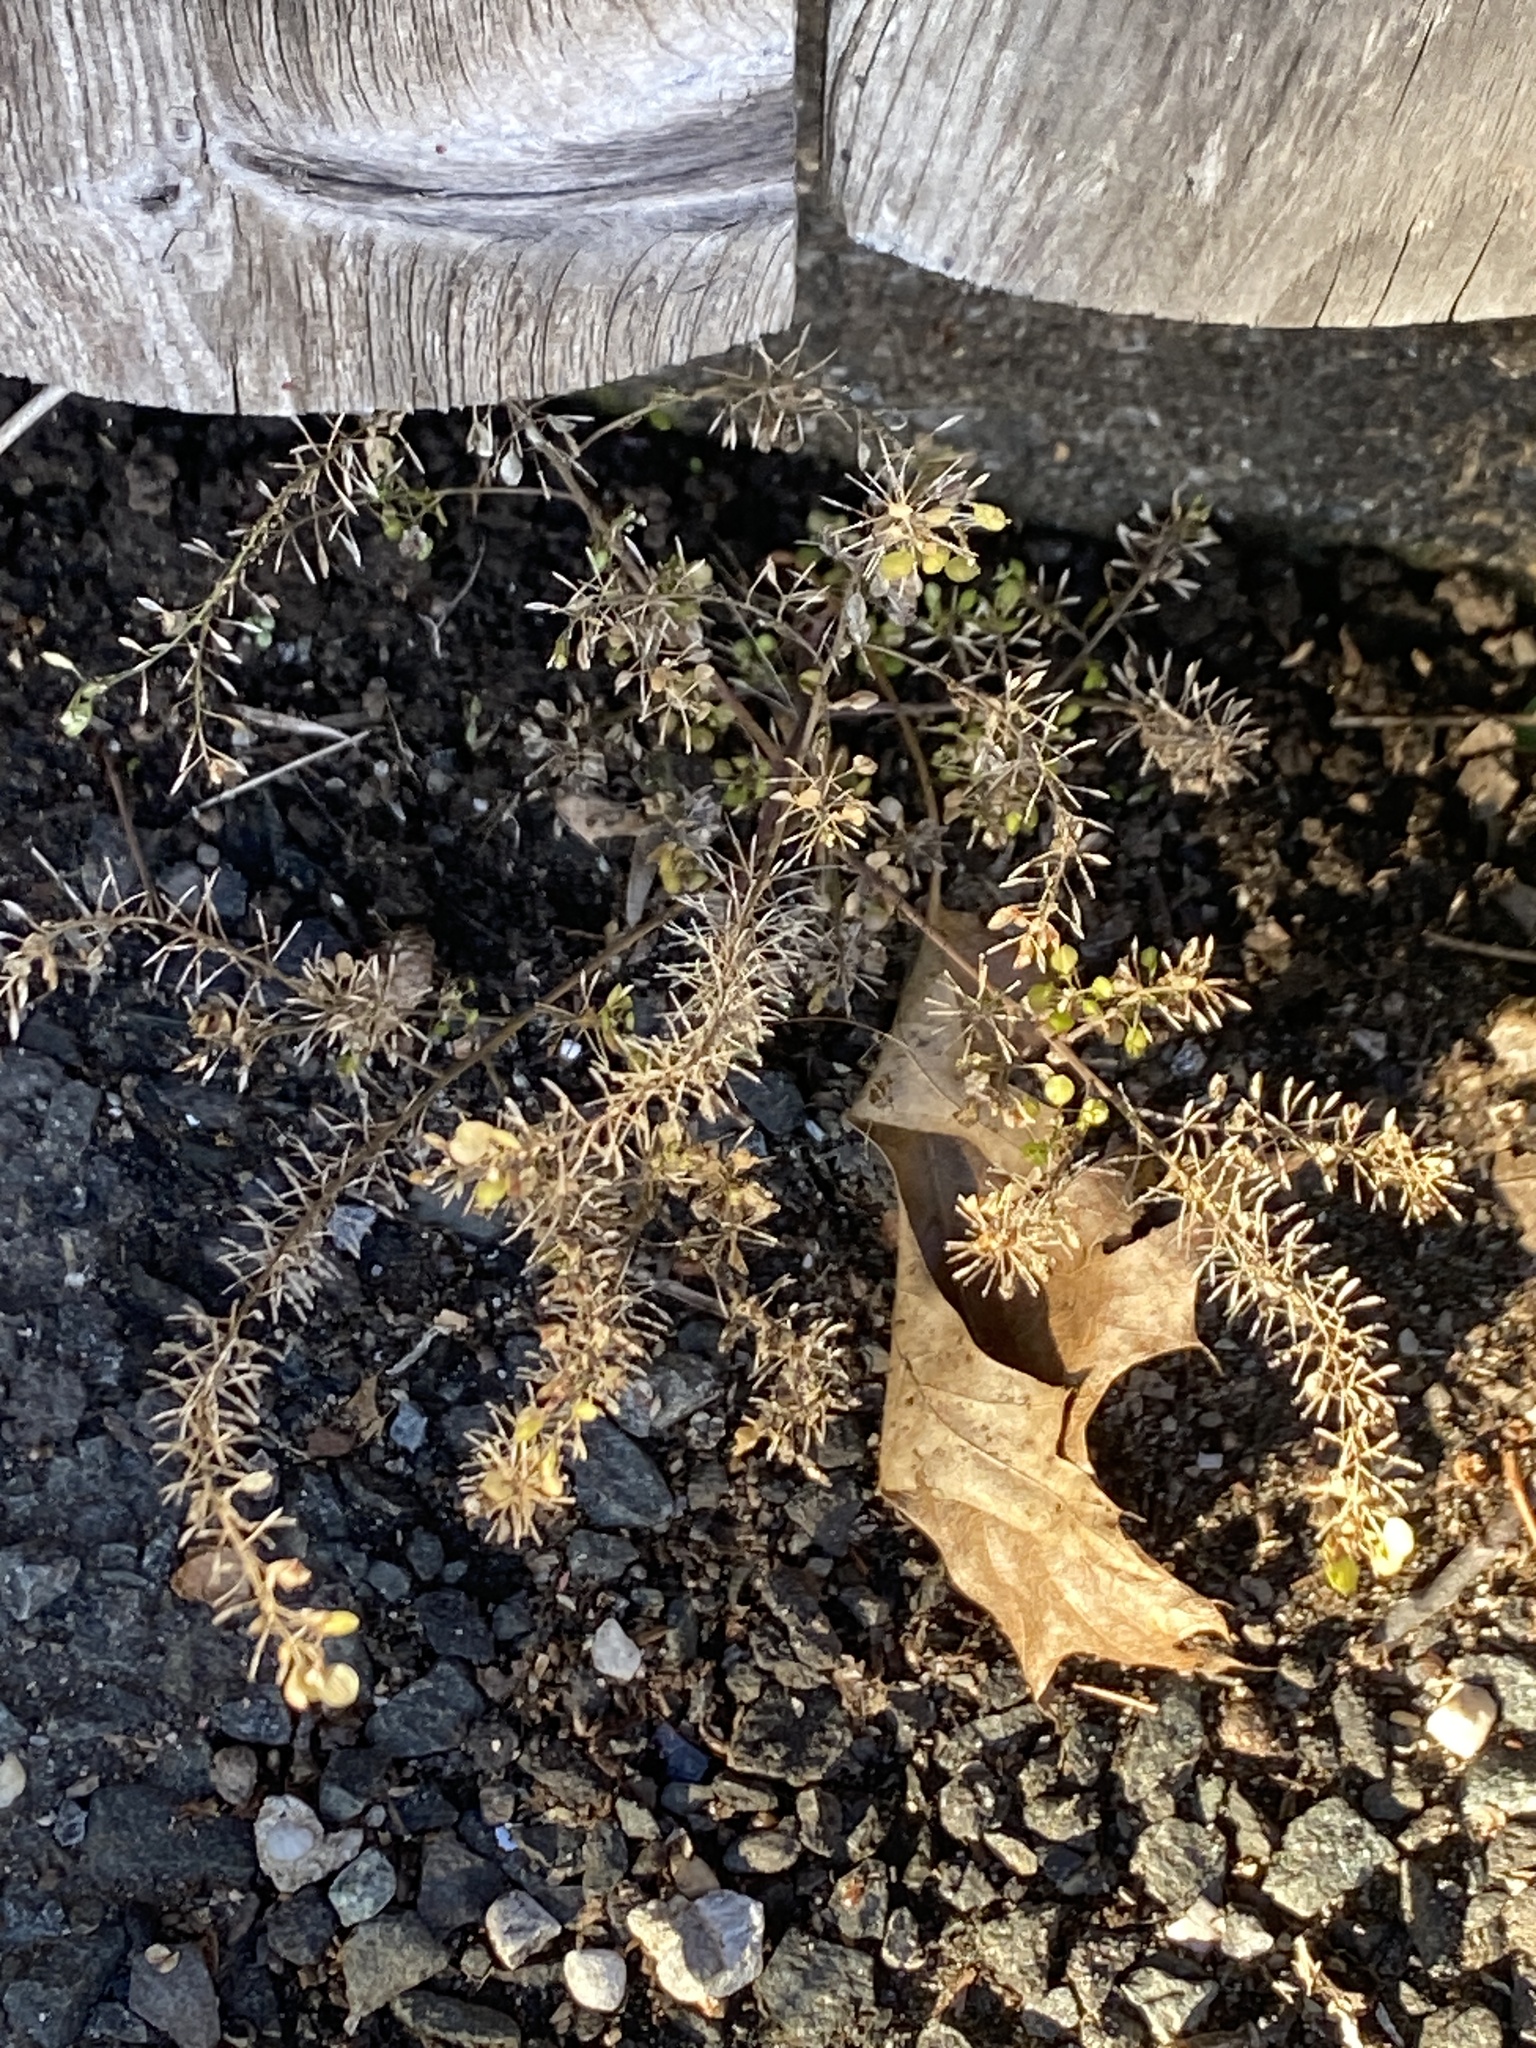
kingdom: Plantae
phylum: Tracheophyta
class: Magnoliopsida
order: Brassicales
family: Brassicaceae
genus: Lepidium
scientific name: Lepidium virginicum
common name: Least pepperwort
